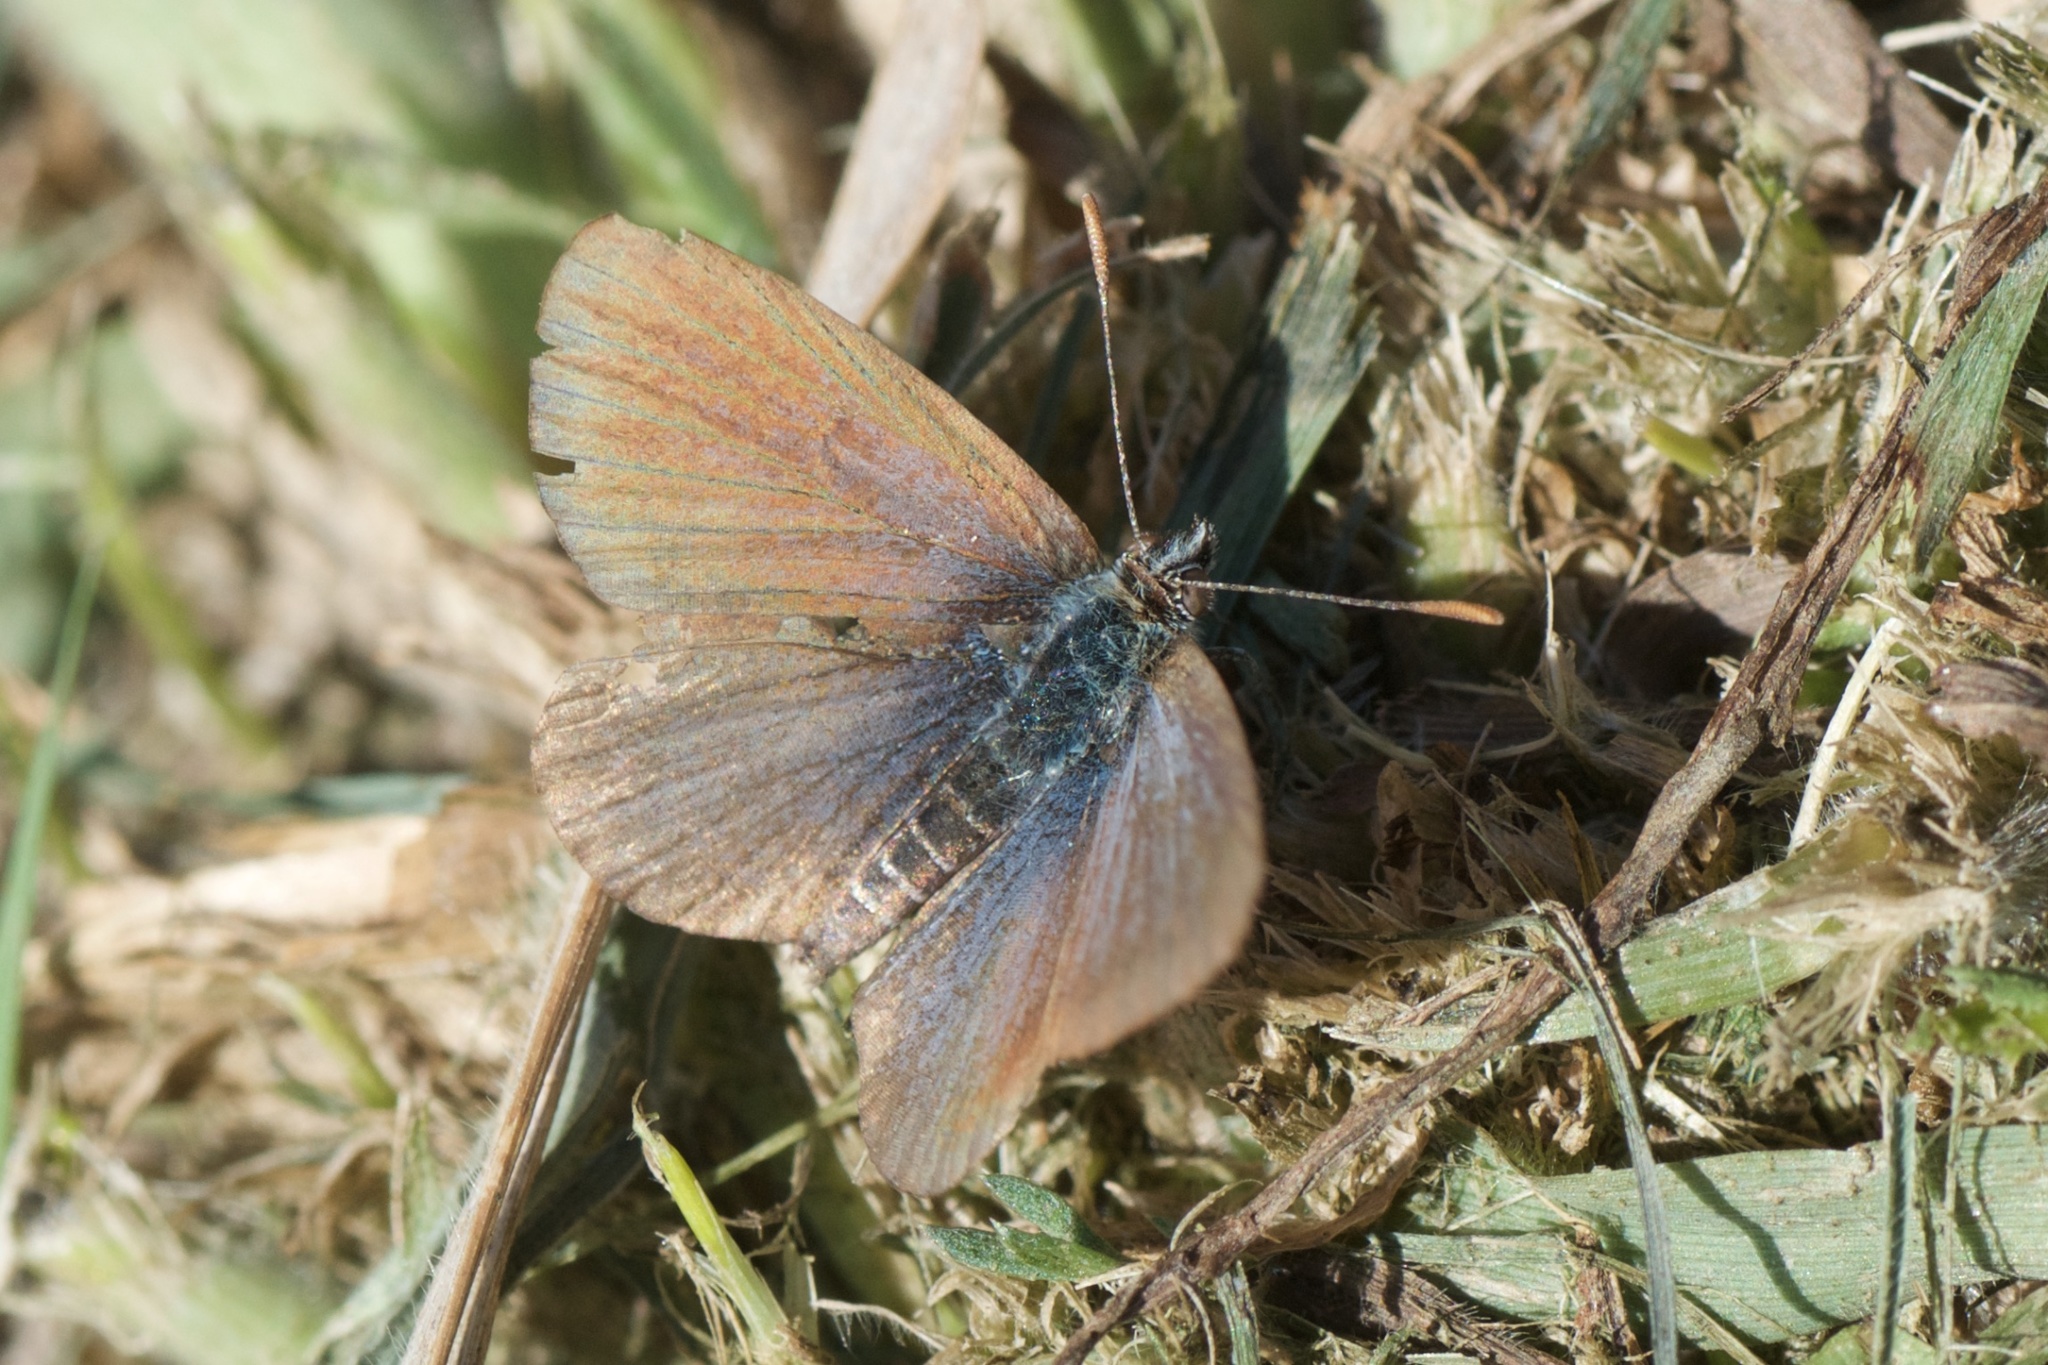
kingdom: Animalia
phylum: Arthropoda
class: Insecta
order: Lepidoptera
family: Lycaenidae
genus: Zizina
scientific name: Zizina oxleyi
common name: Southern blue
